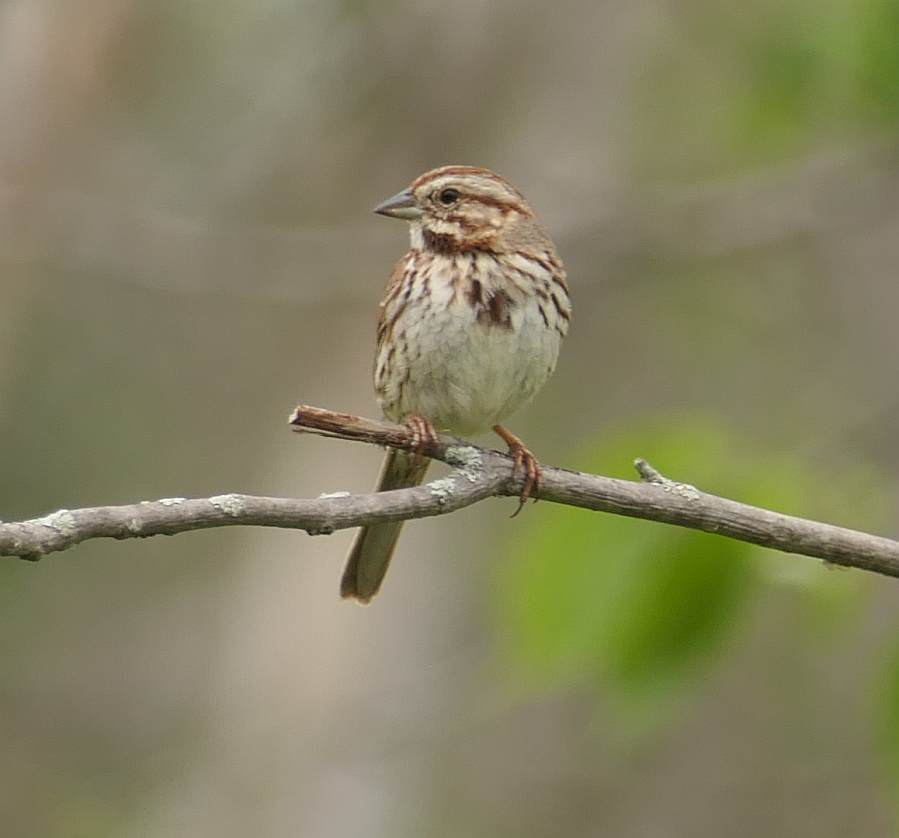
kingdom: Animalia
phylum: Chordata
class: Aves
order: Passeriformes
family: Passerellidae
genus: Melospiza
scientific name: Melospiza melodia
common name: Song sparrow
